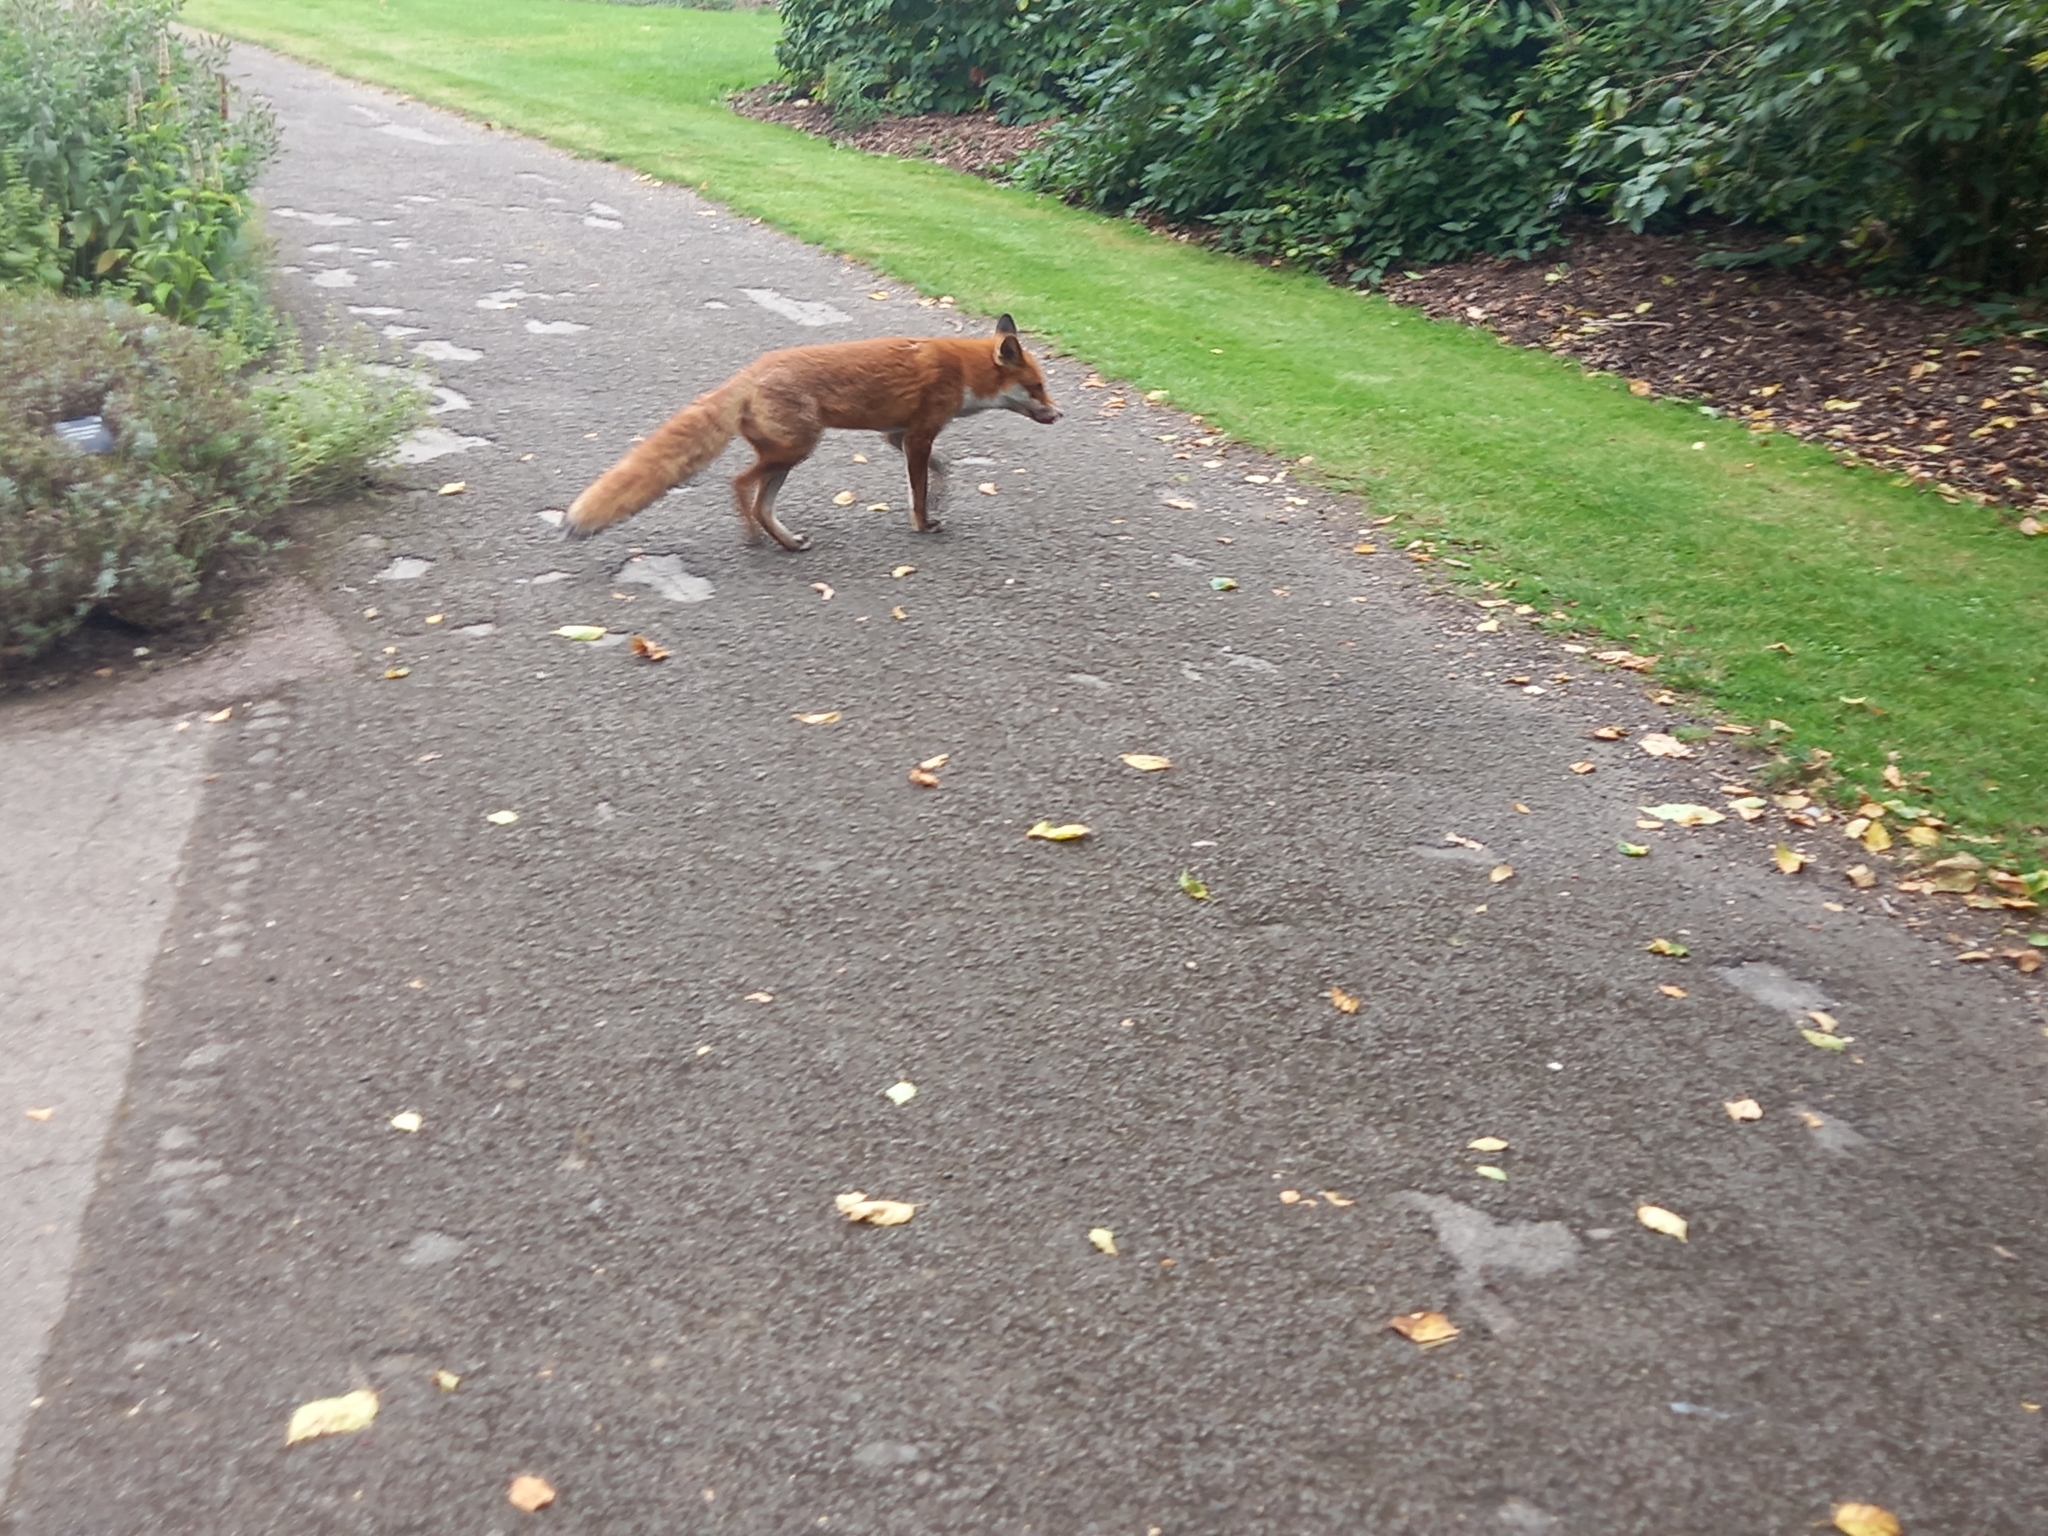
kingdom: Animalia
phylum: Chordata
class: Mammalia
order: Carnivora
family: Canidae
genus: Vulpes
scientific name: Vulpes vulpes
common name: Red fox
